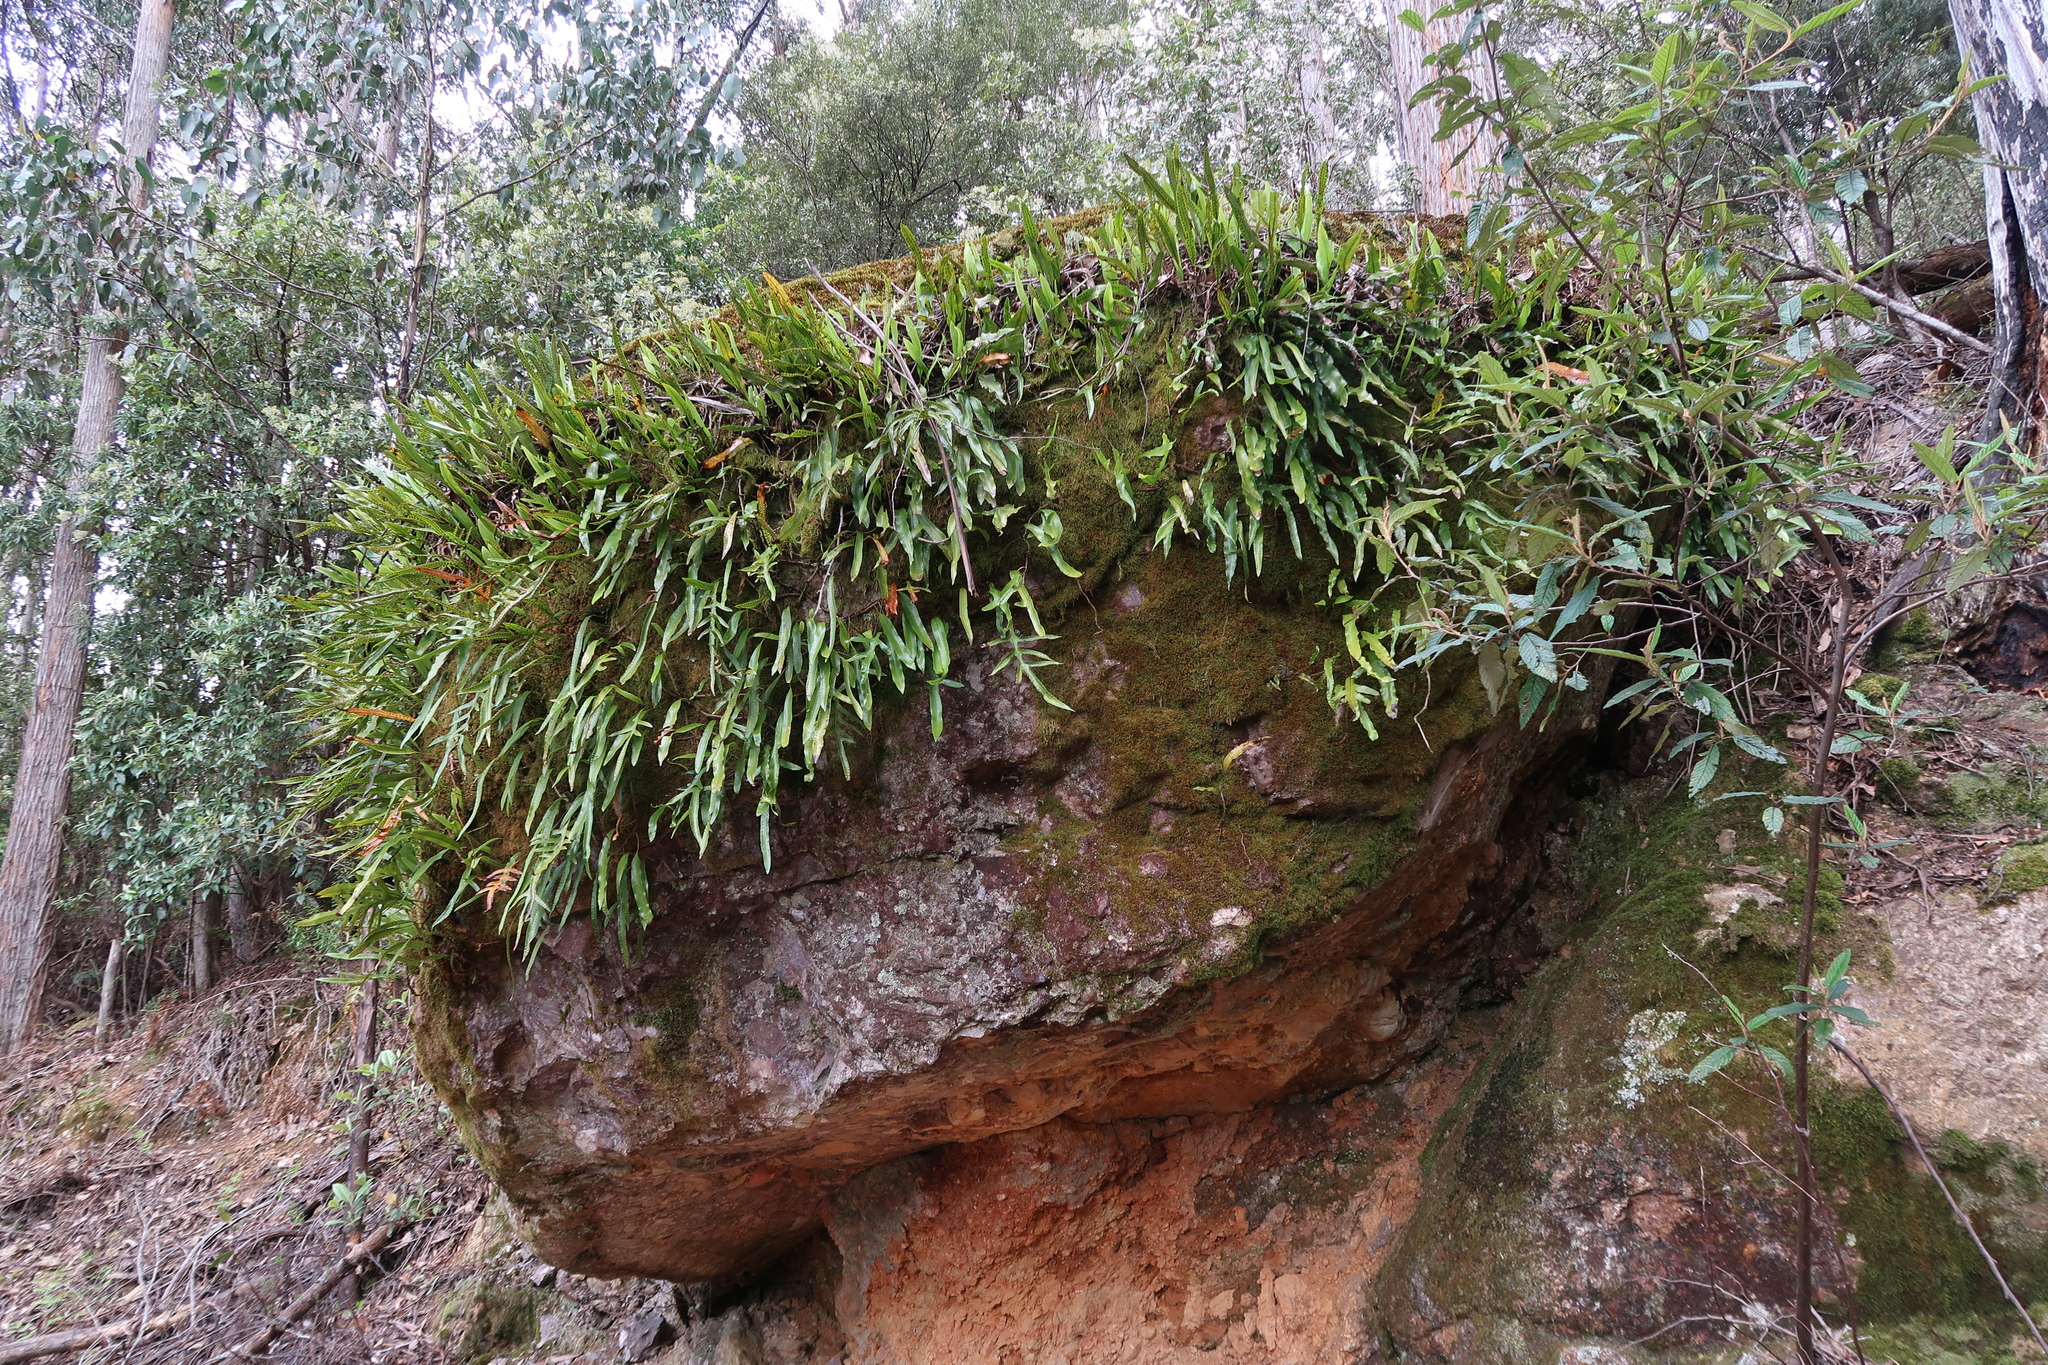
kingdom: Plantae
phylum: Tracheophyta
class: Polypodiopsida
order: Polypodiales
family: Polypodiaceae
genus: Lecanopteris
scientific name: Lecanopteris pustulata
